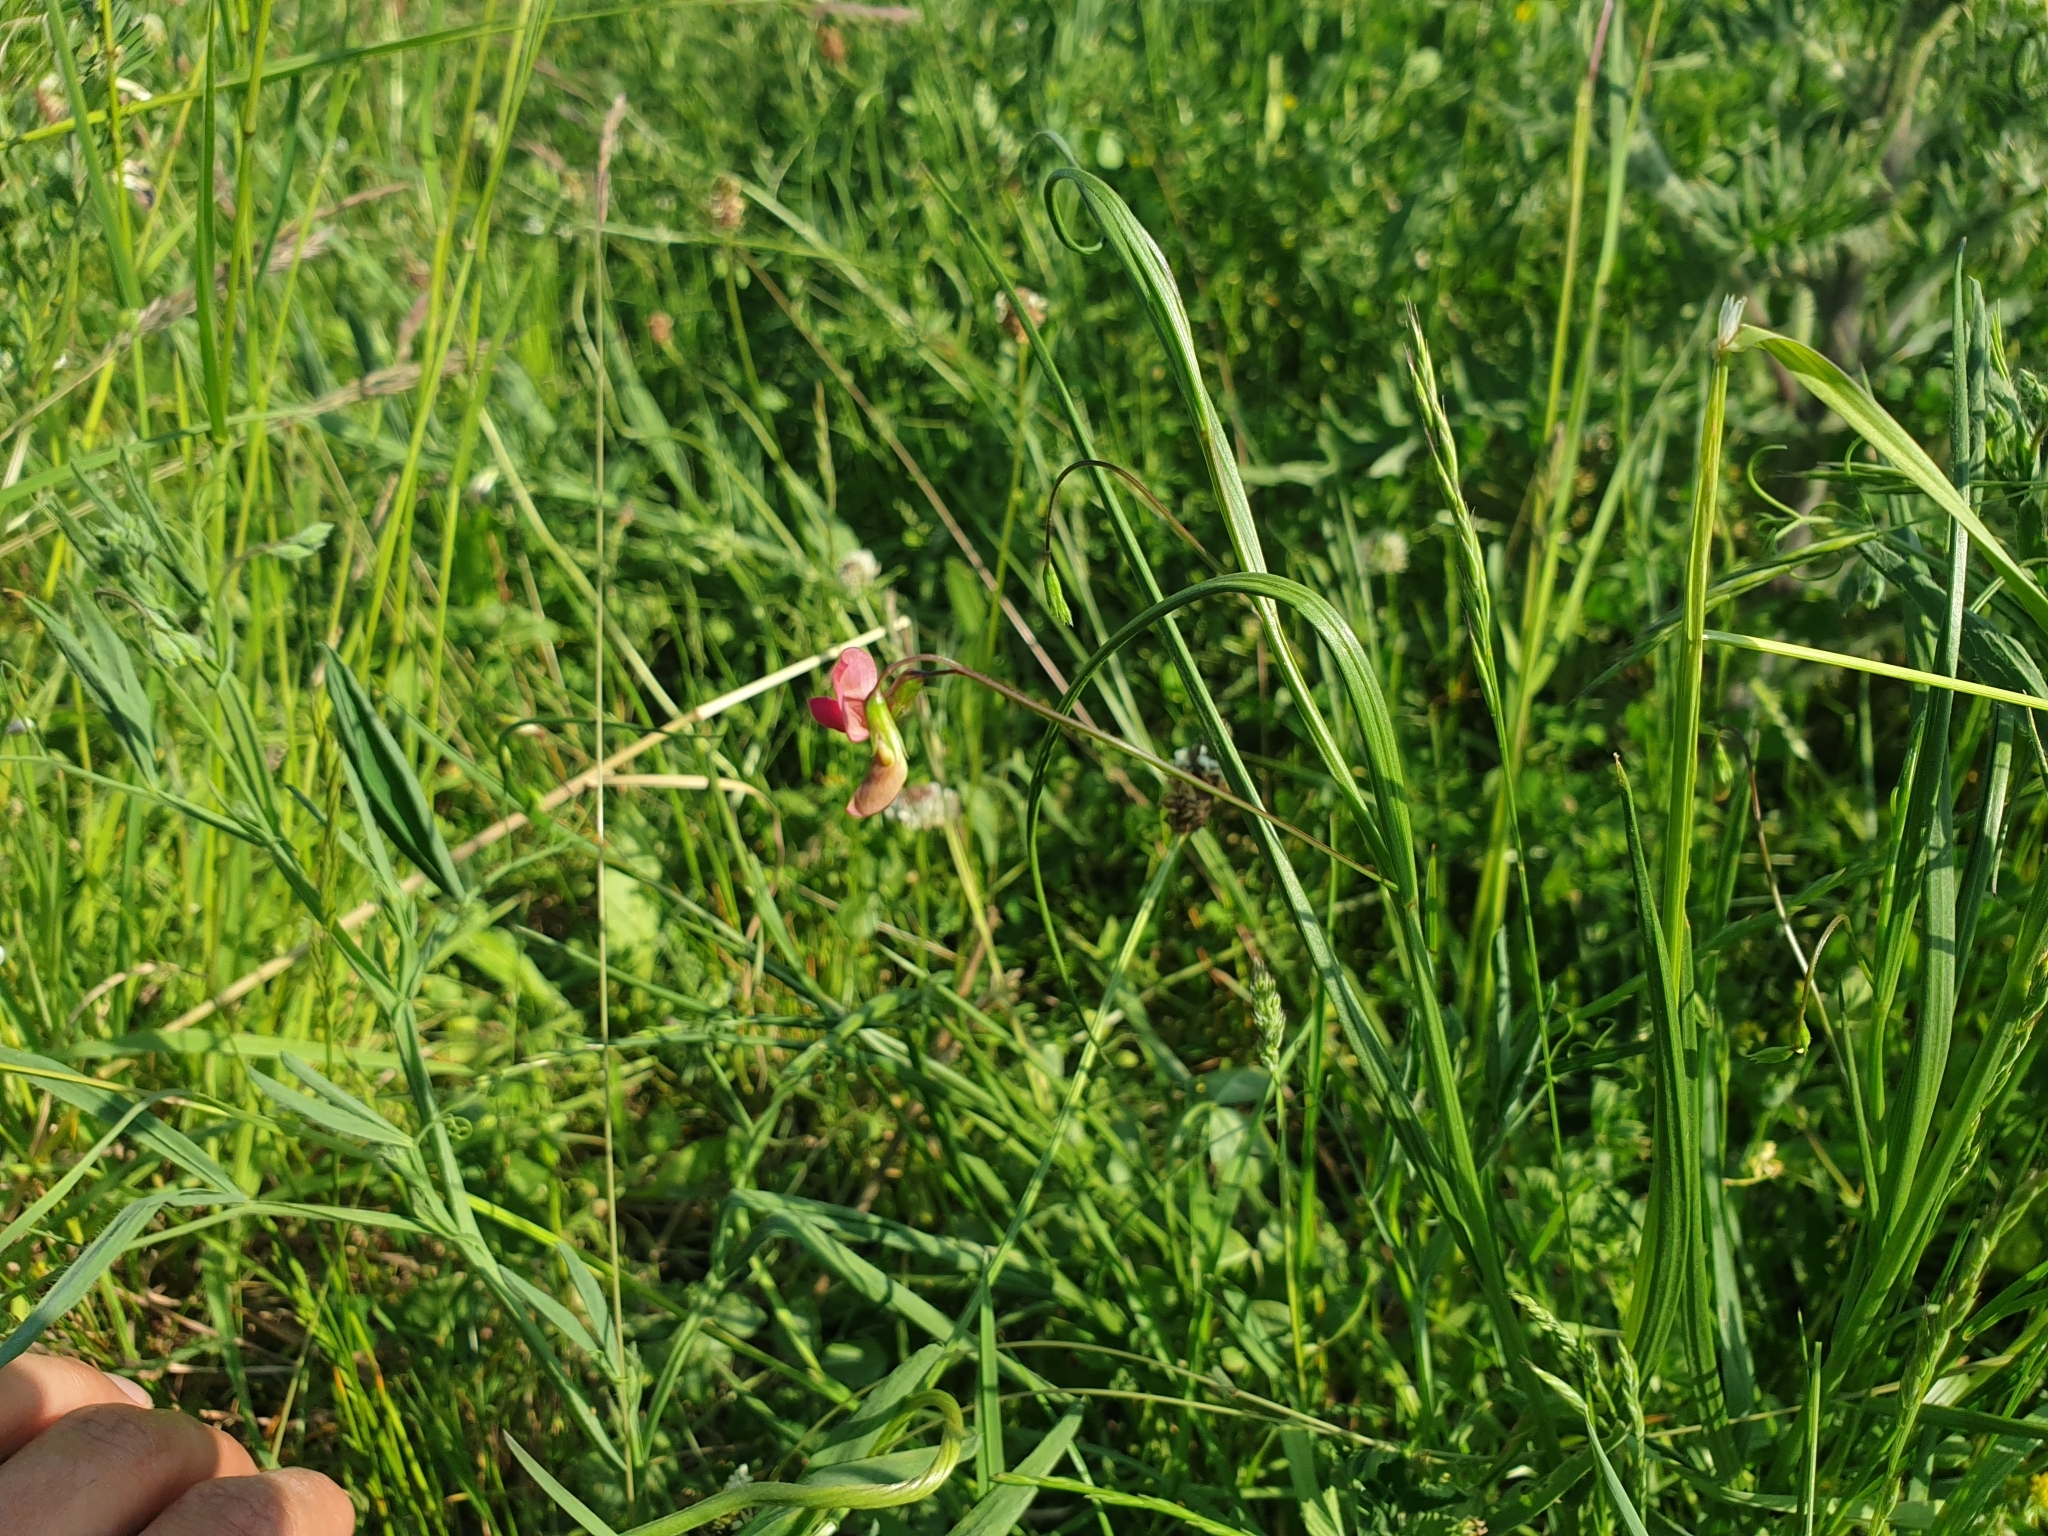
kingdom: Plantae
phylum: Tracheophyta
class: Magnoliopsida
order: Fabales
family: Fabaceae
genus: Lathyrus
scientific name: Lathyrus nissolia
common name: Grass vetchling
